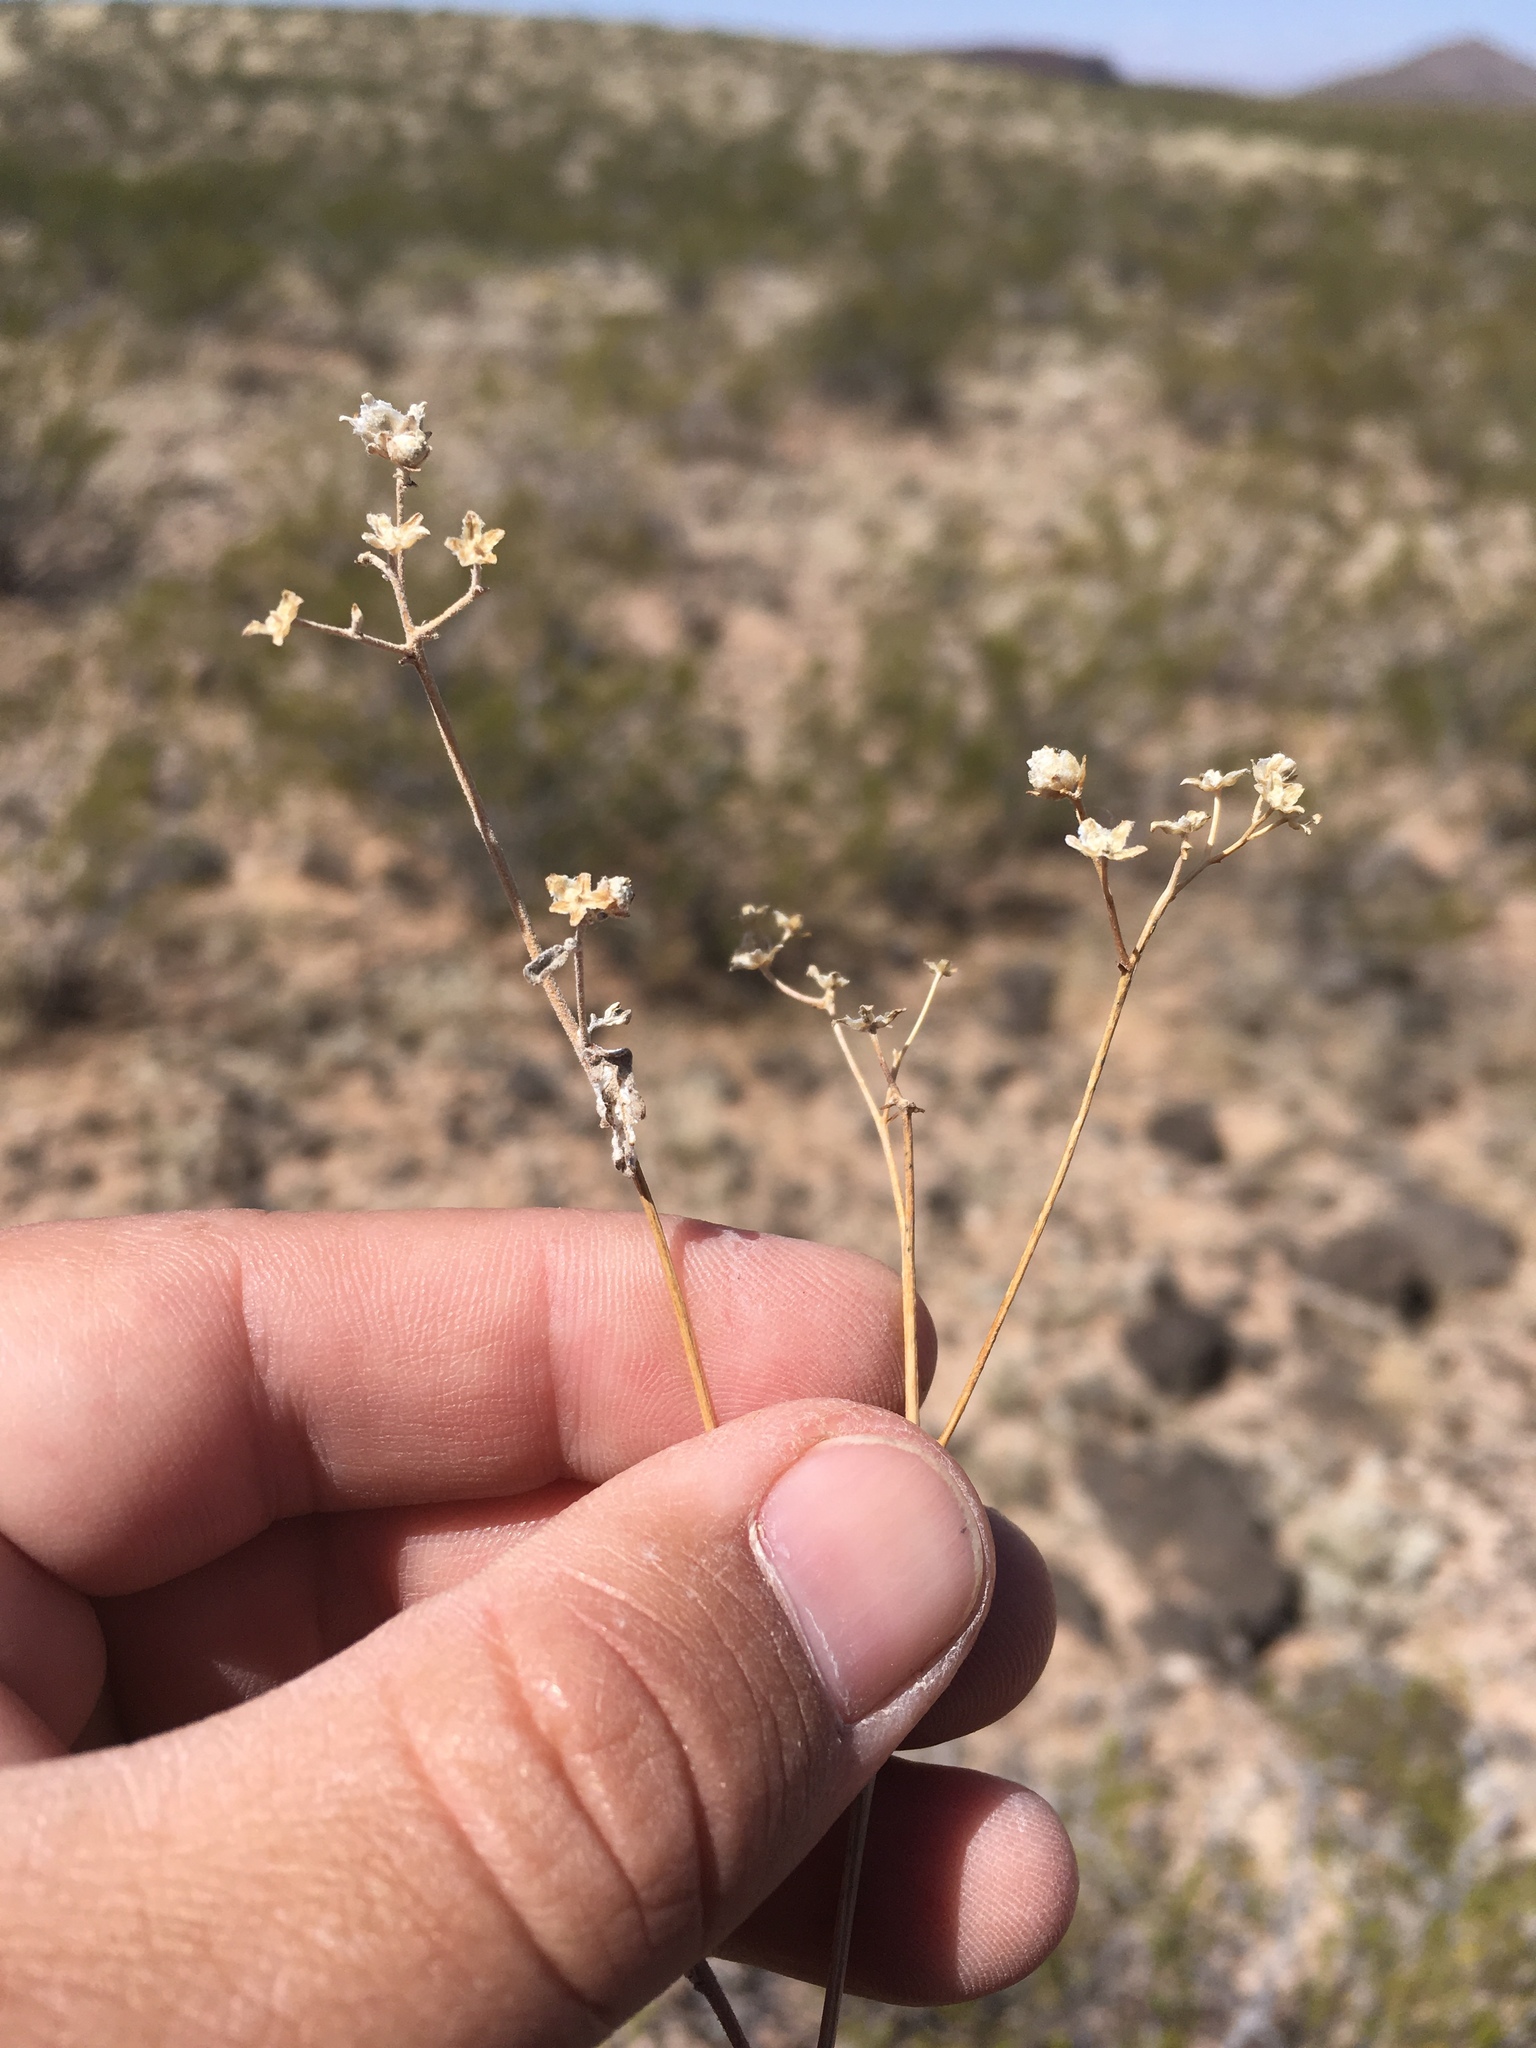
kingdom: Plantae
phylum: Tracheophyta
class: Magnoliopsida
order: Asterales
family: Asteraceae
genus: Parthenium
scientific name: Parthenium incanum
